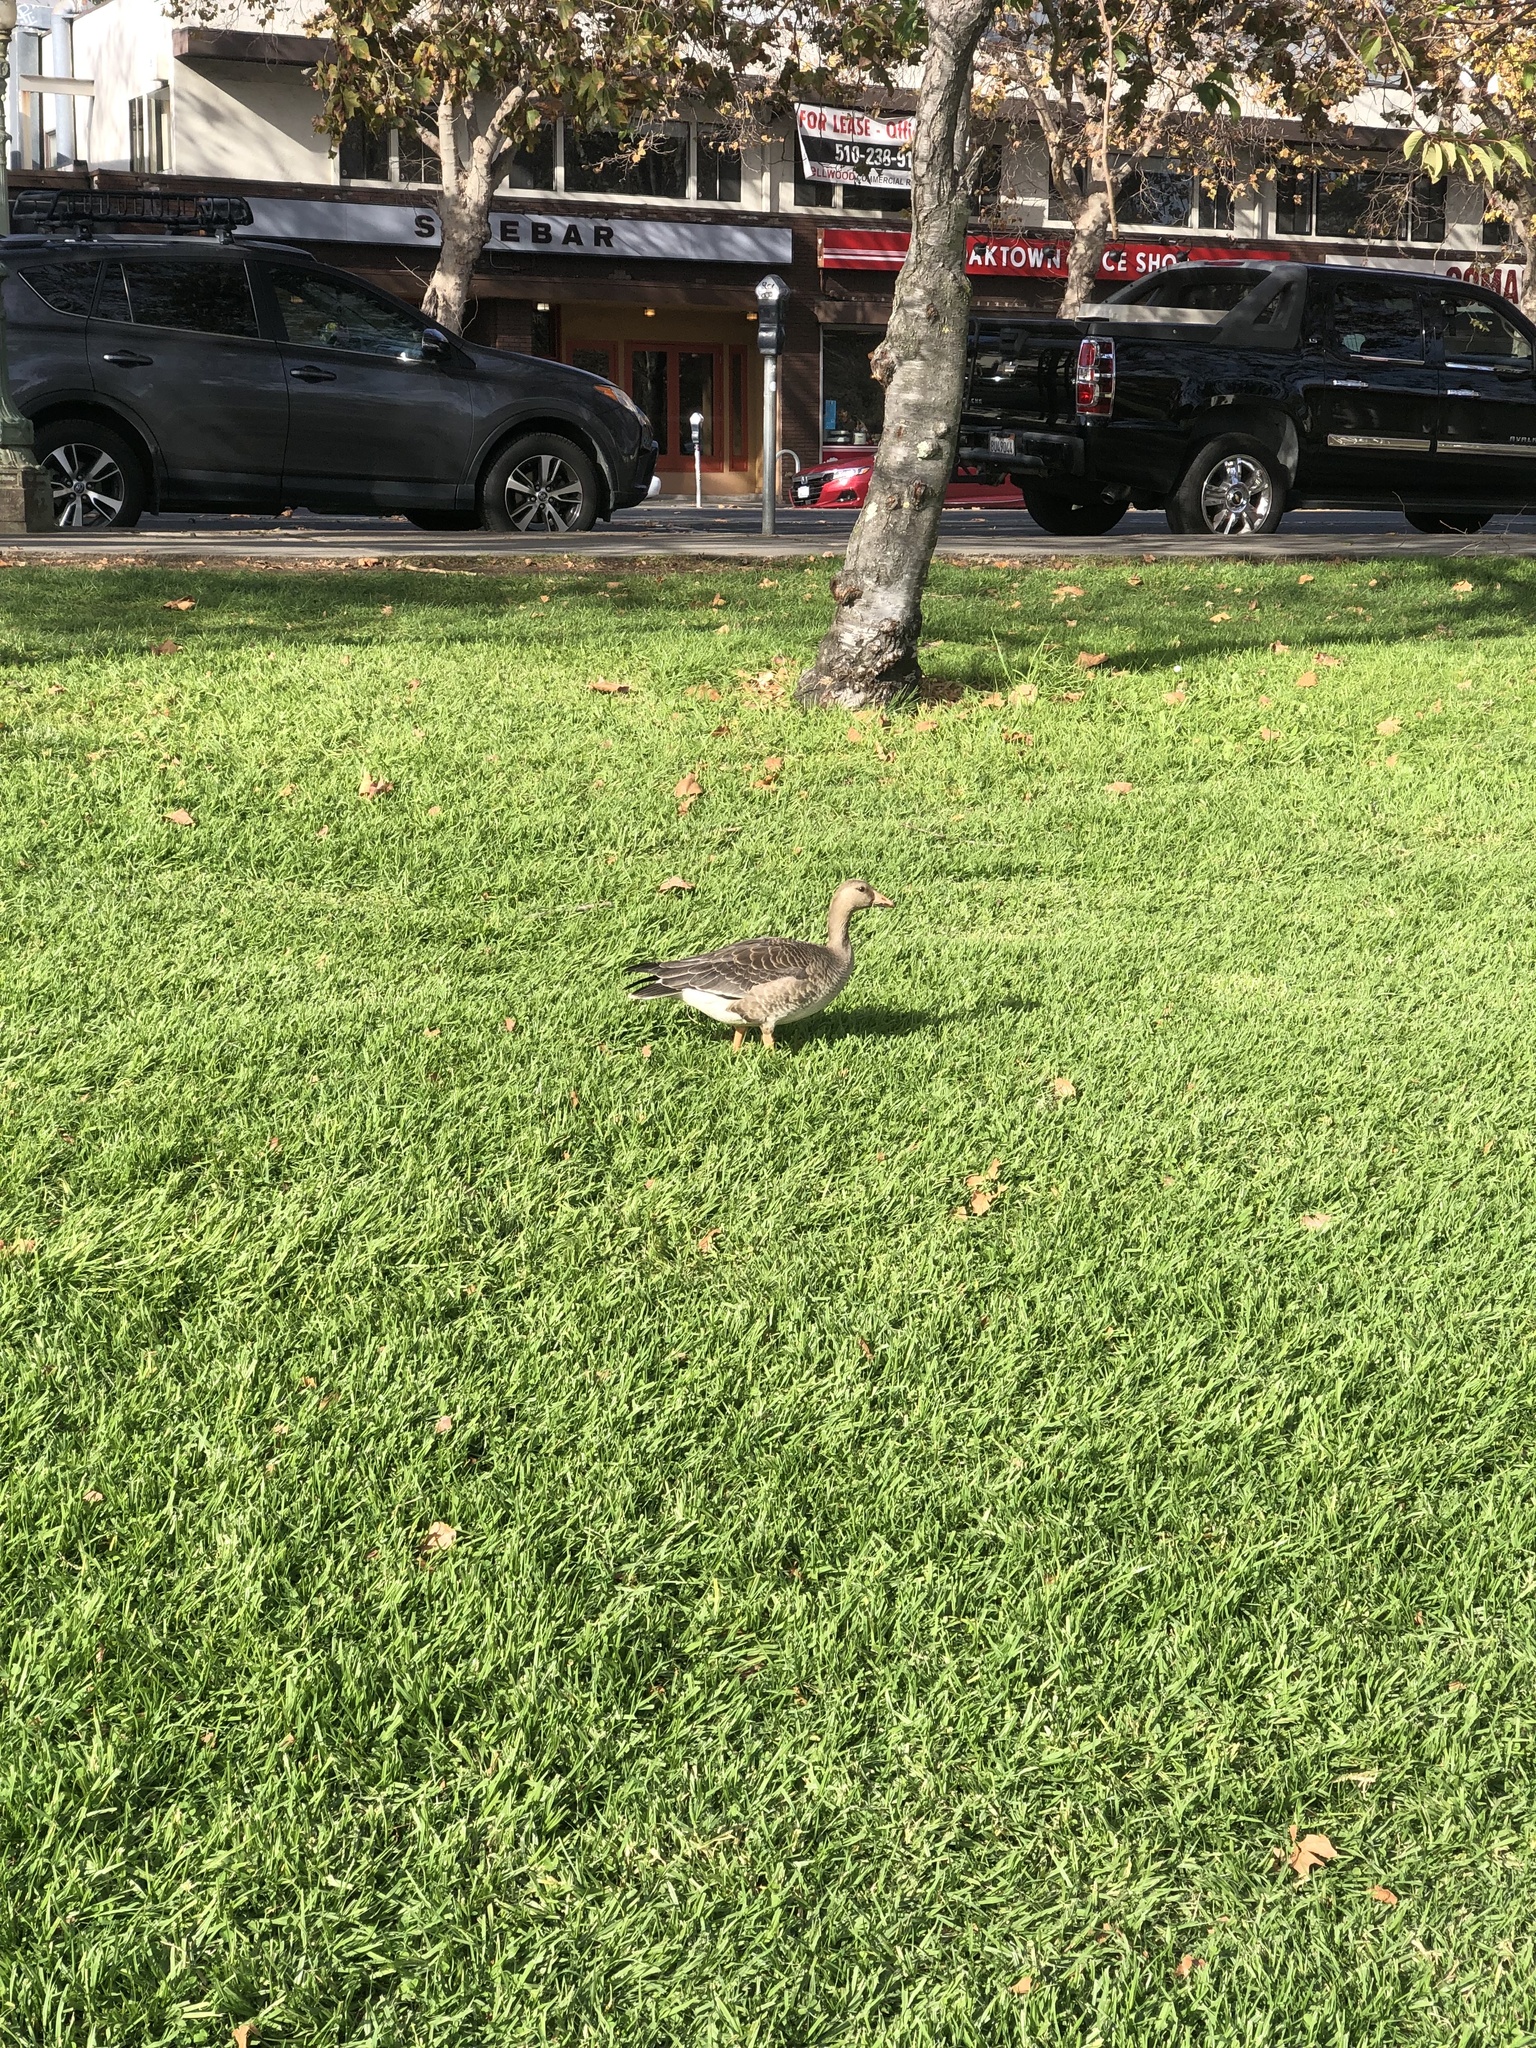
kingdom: Animalia
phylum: Chordata
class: Aves
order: Anseriformes
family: Anatidae
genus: Anser
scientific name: Anser albifrons
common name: Greater white-fronted goose
